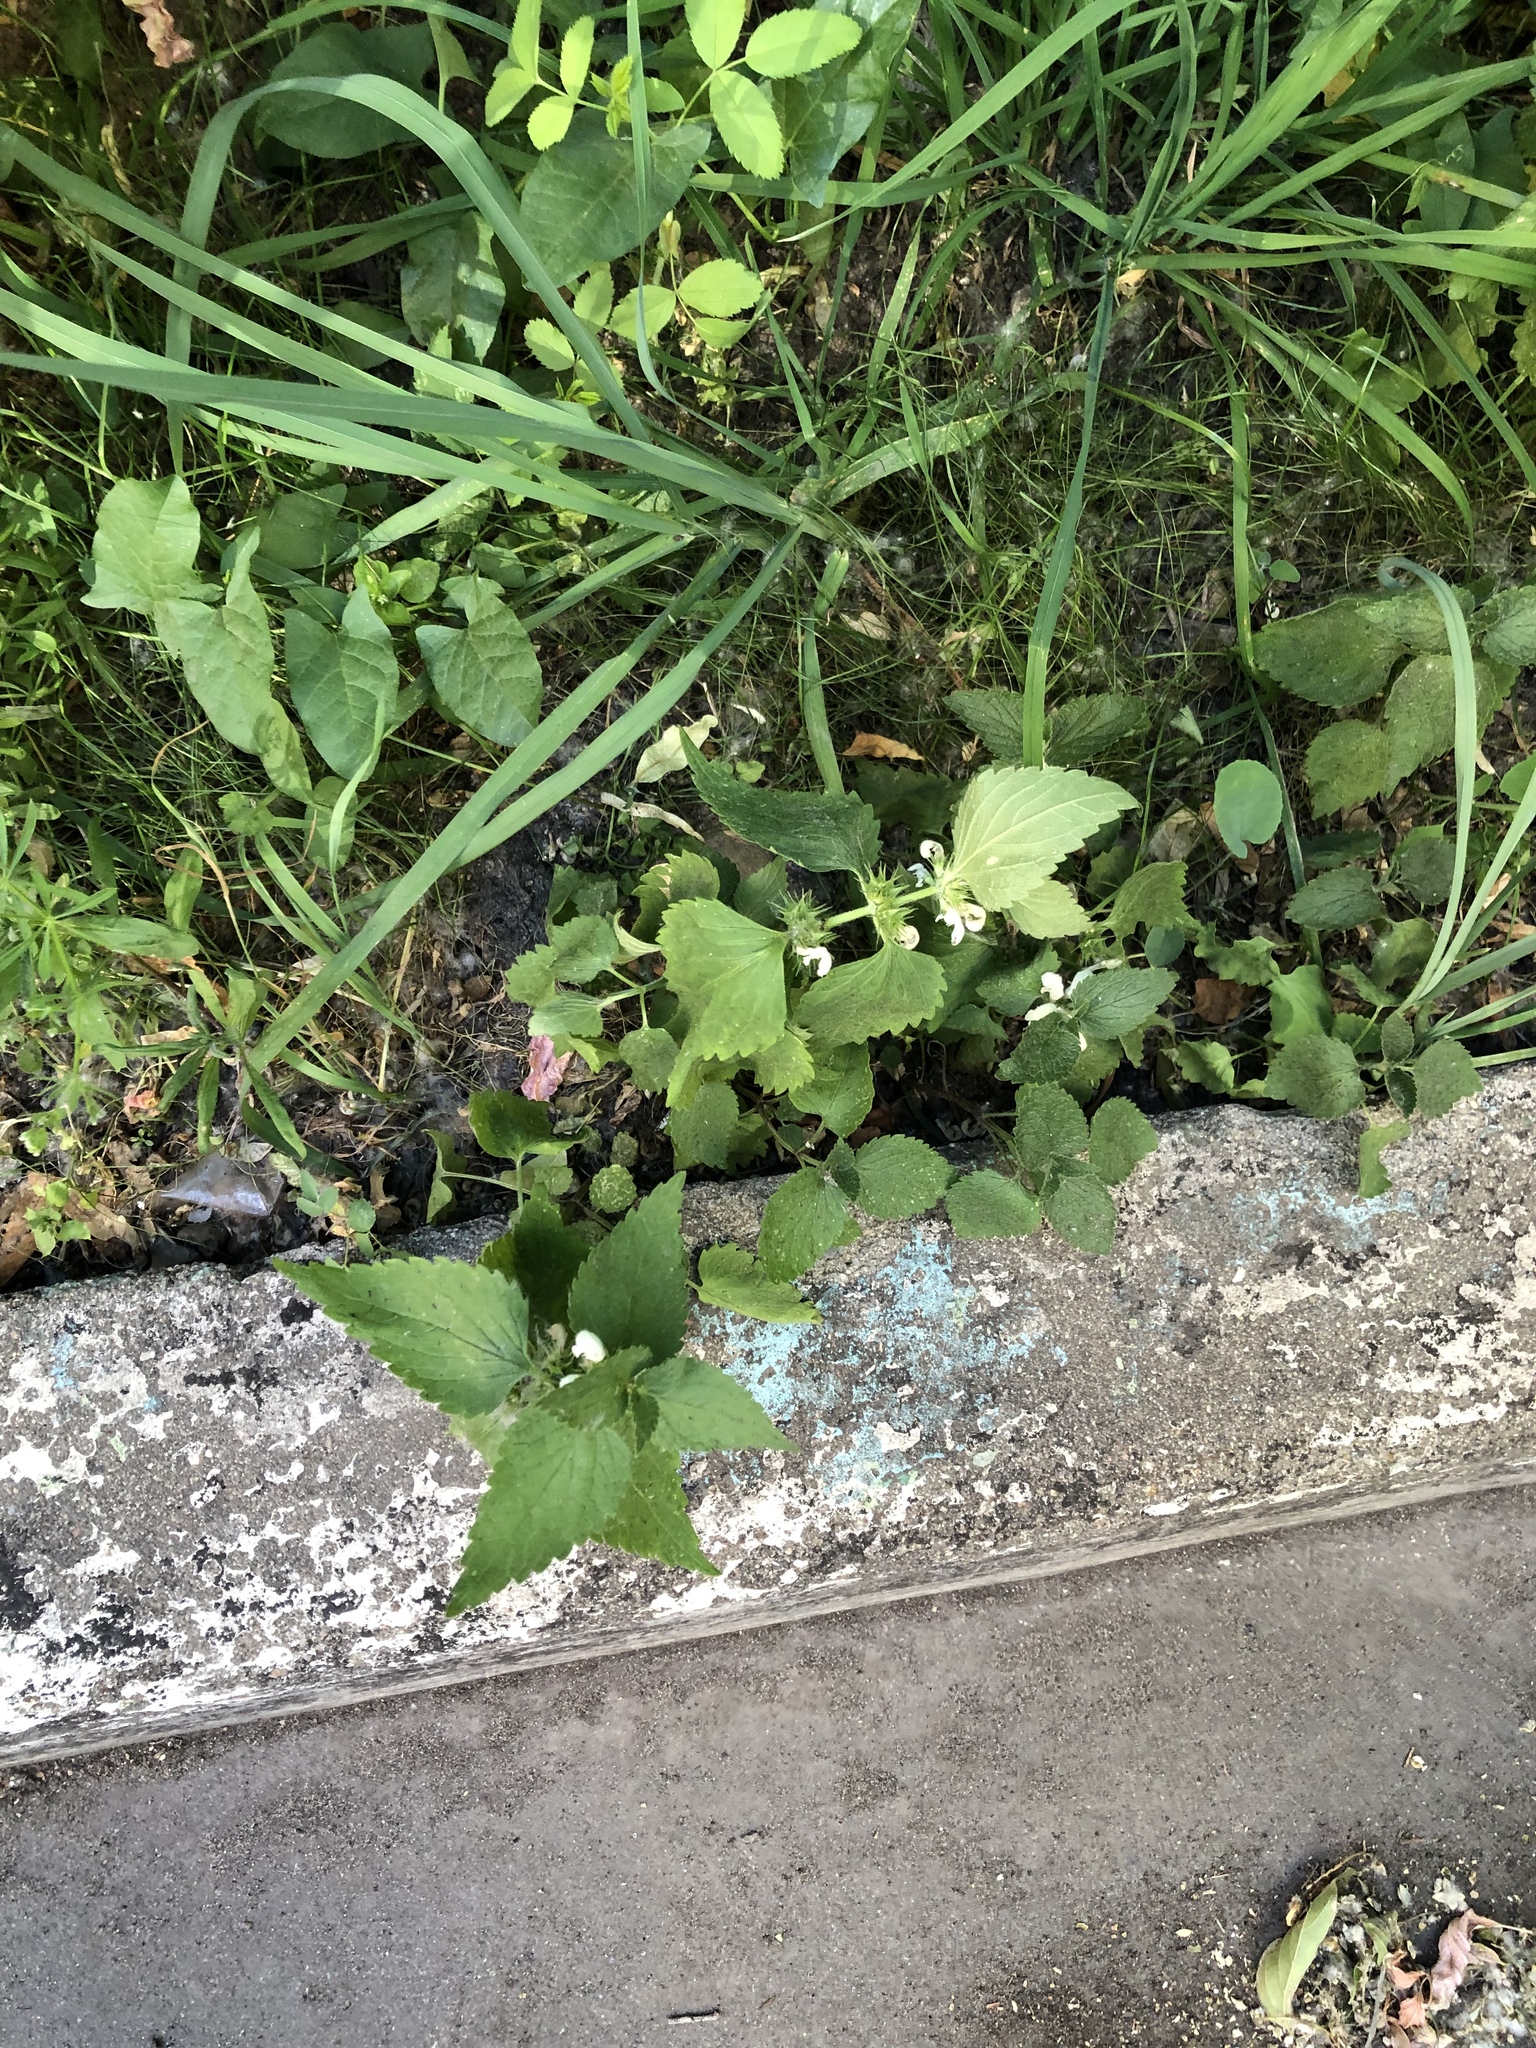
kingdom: Plantae
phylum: Tracheophyta
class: Magnoliopsida
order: Lamiales
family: Lamiaceae
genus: Lamium
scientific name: Lamium album
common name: White dead-nettle
